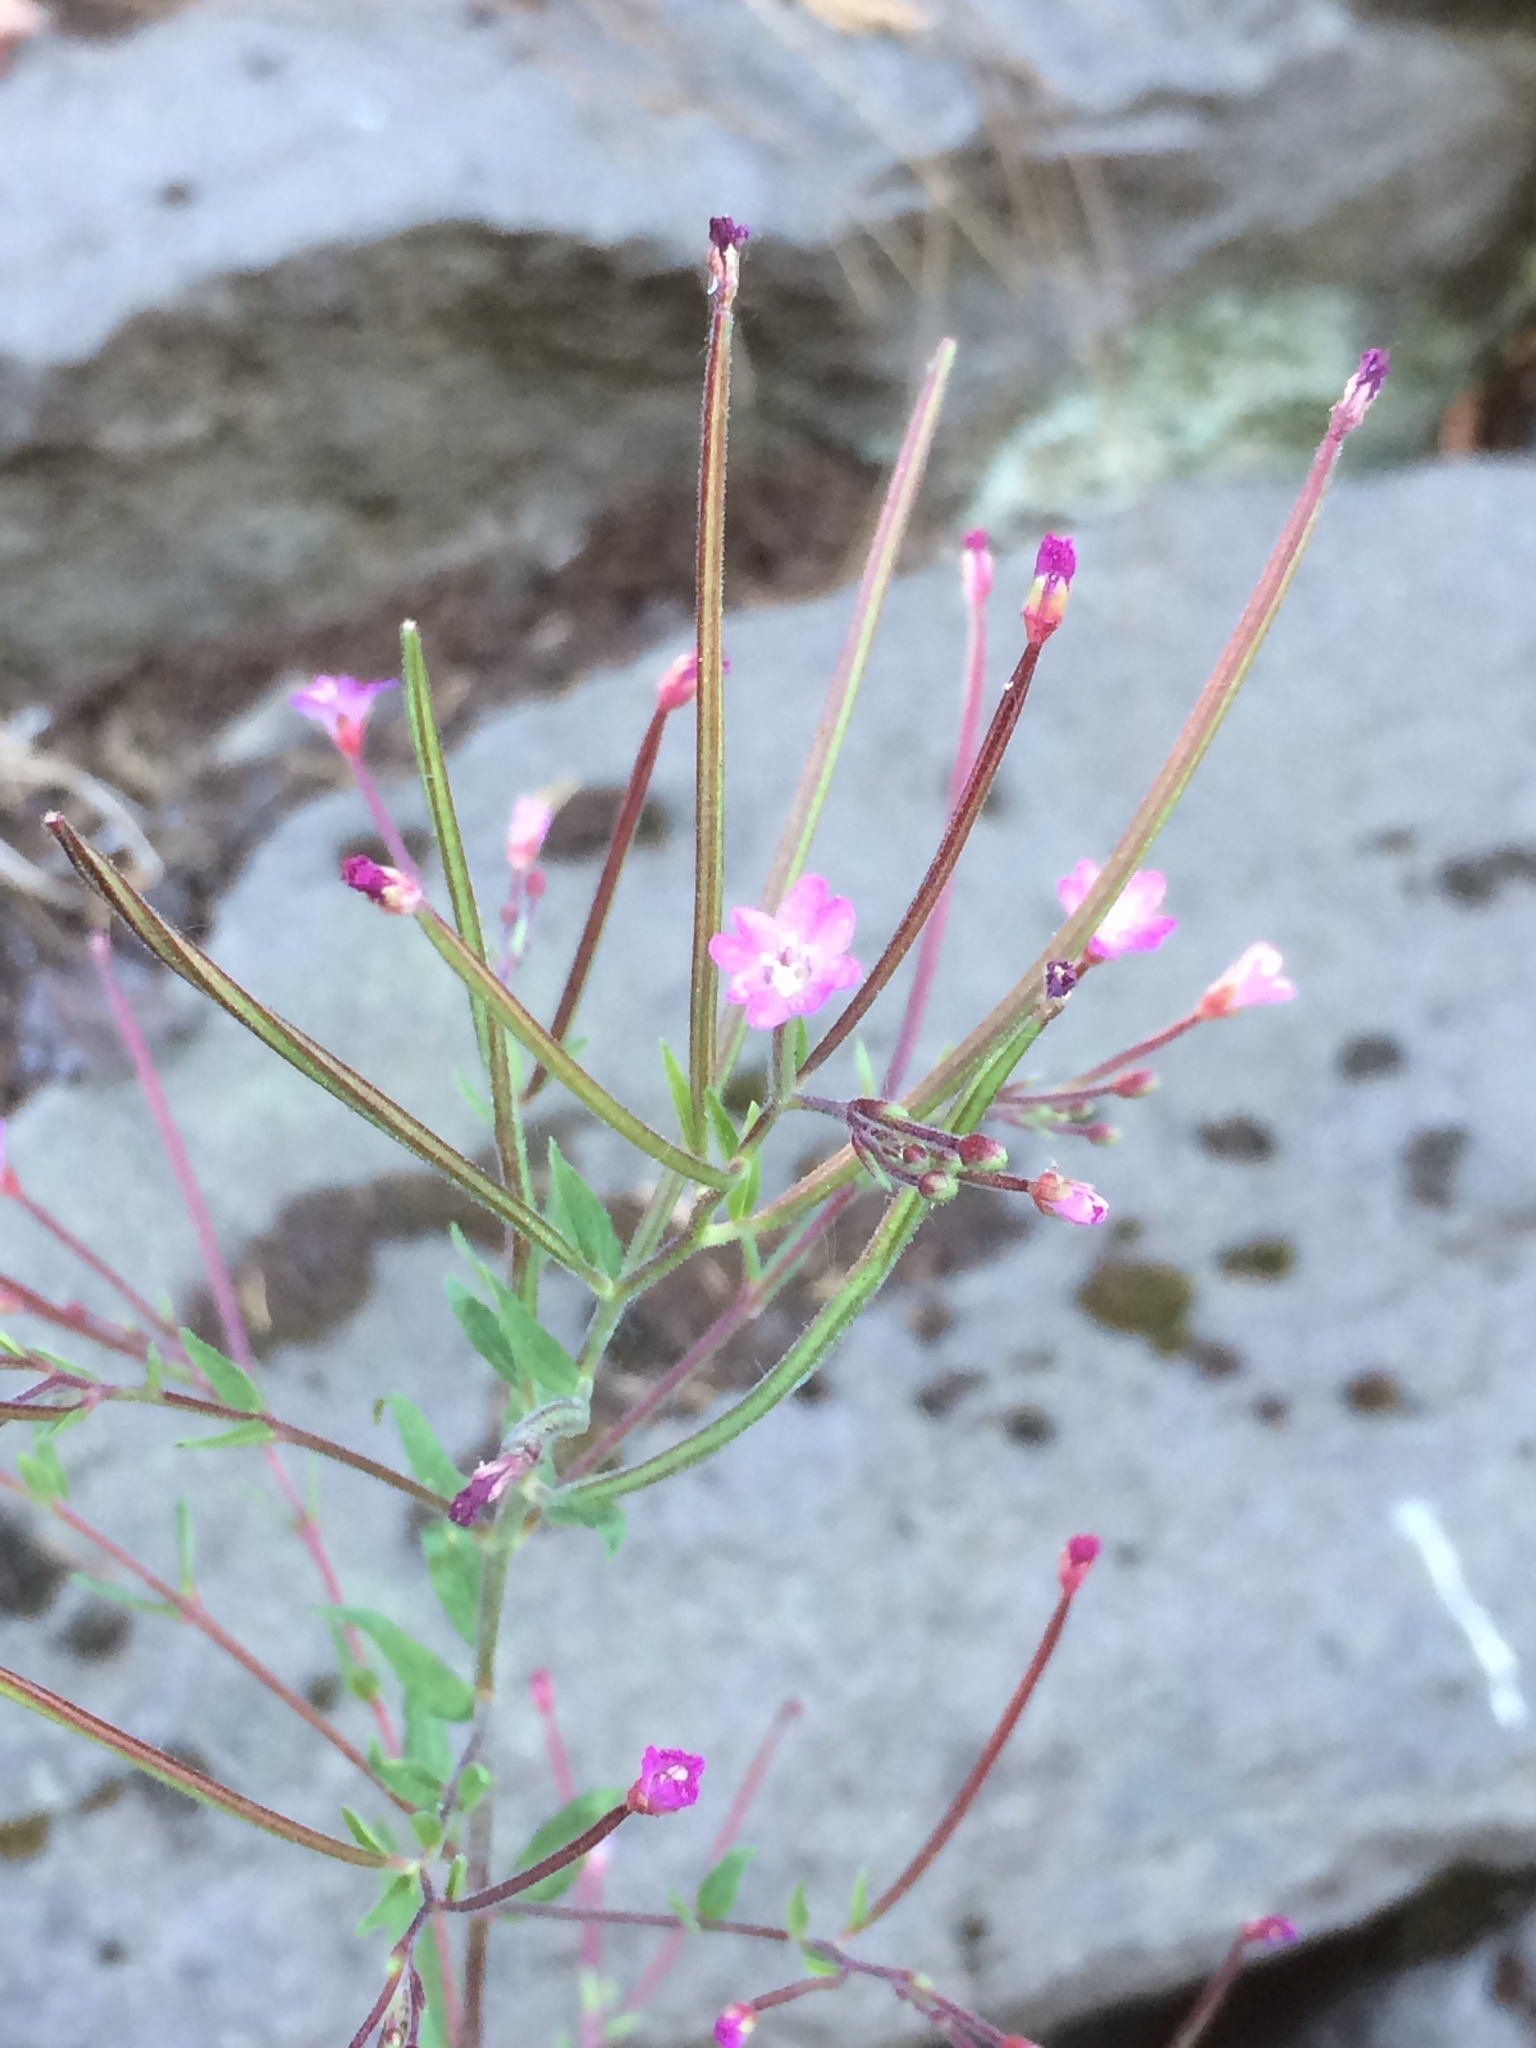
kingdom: Plantae
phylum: Tracheophyta
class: Magnoliopsida
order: Myrtales
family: Onagraceae
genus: Epilobium
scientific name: Epilobium ciliatum
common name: American willowherb
